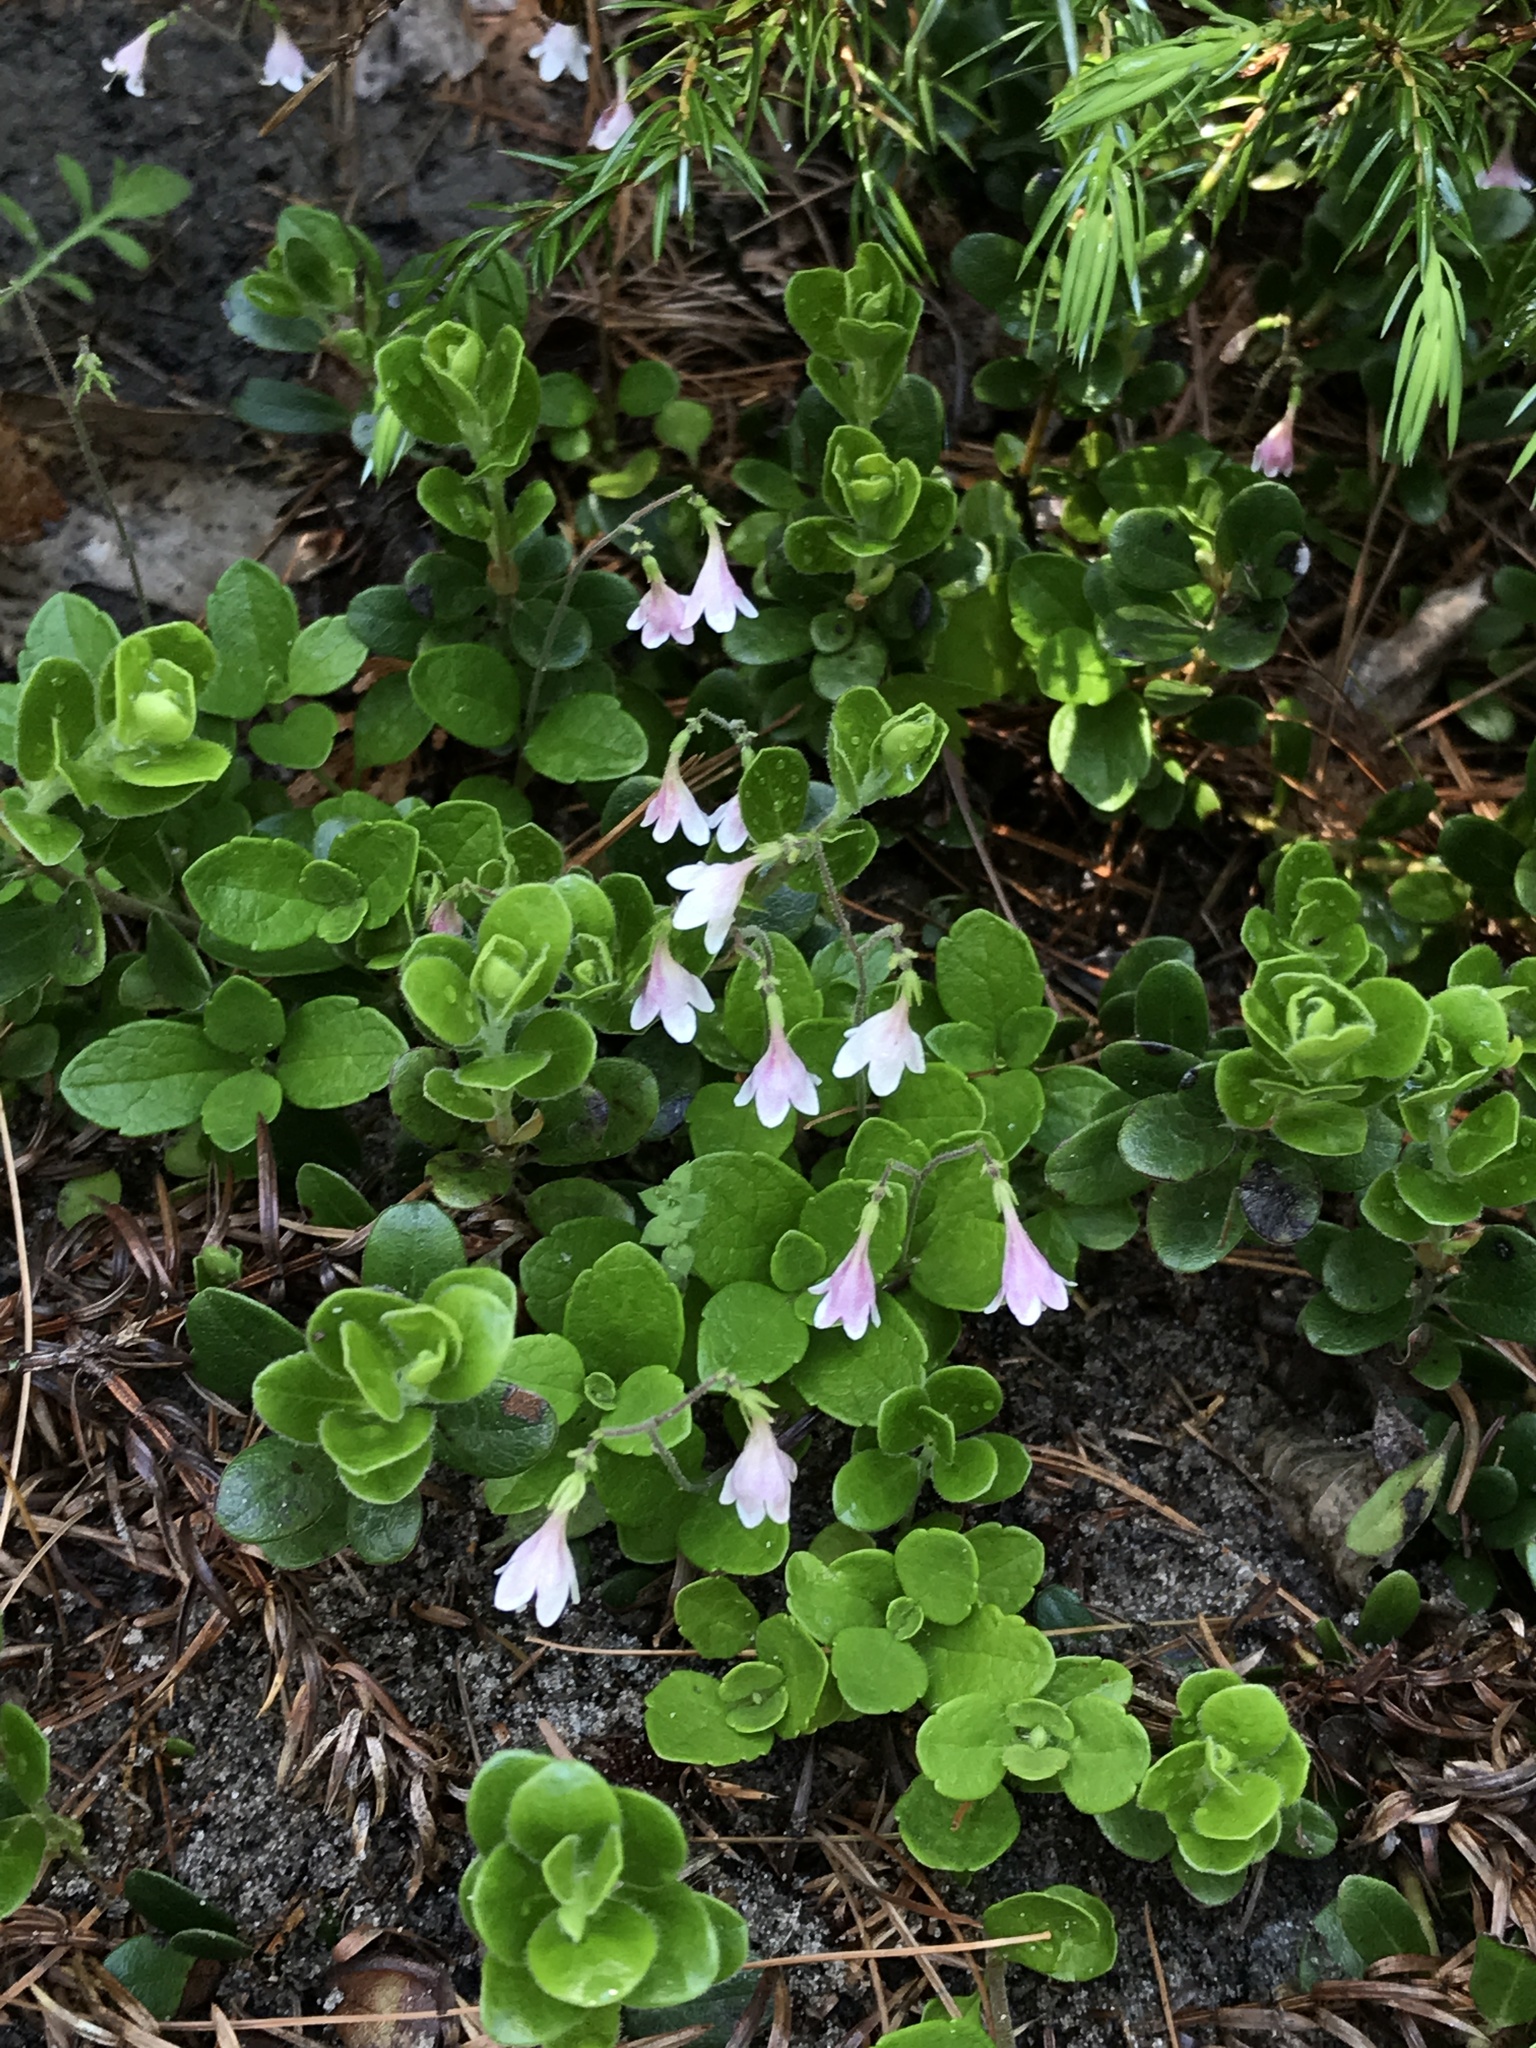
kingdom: Plantae
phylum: Tracheophyta
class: Magnoliopsida
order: Dipsacales
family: Caprifoliaceae
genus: Linnaea
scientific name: Linnaea borealis
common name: Twinflower
